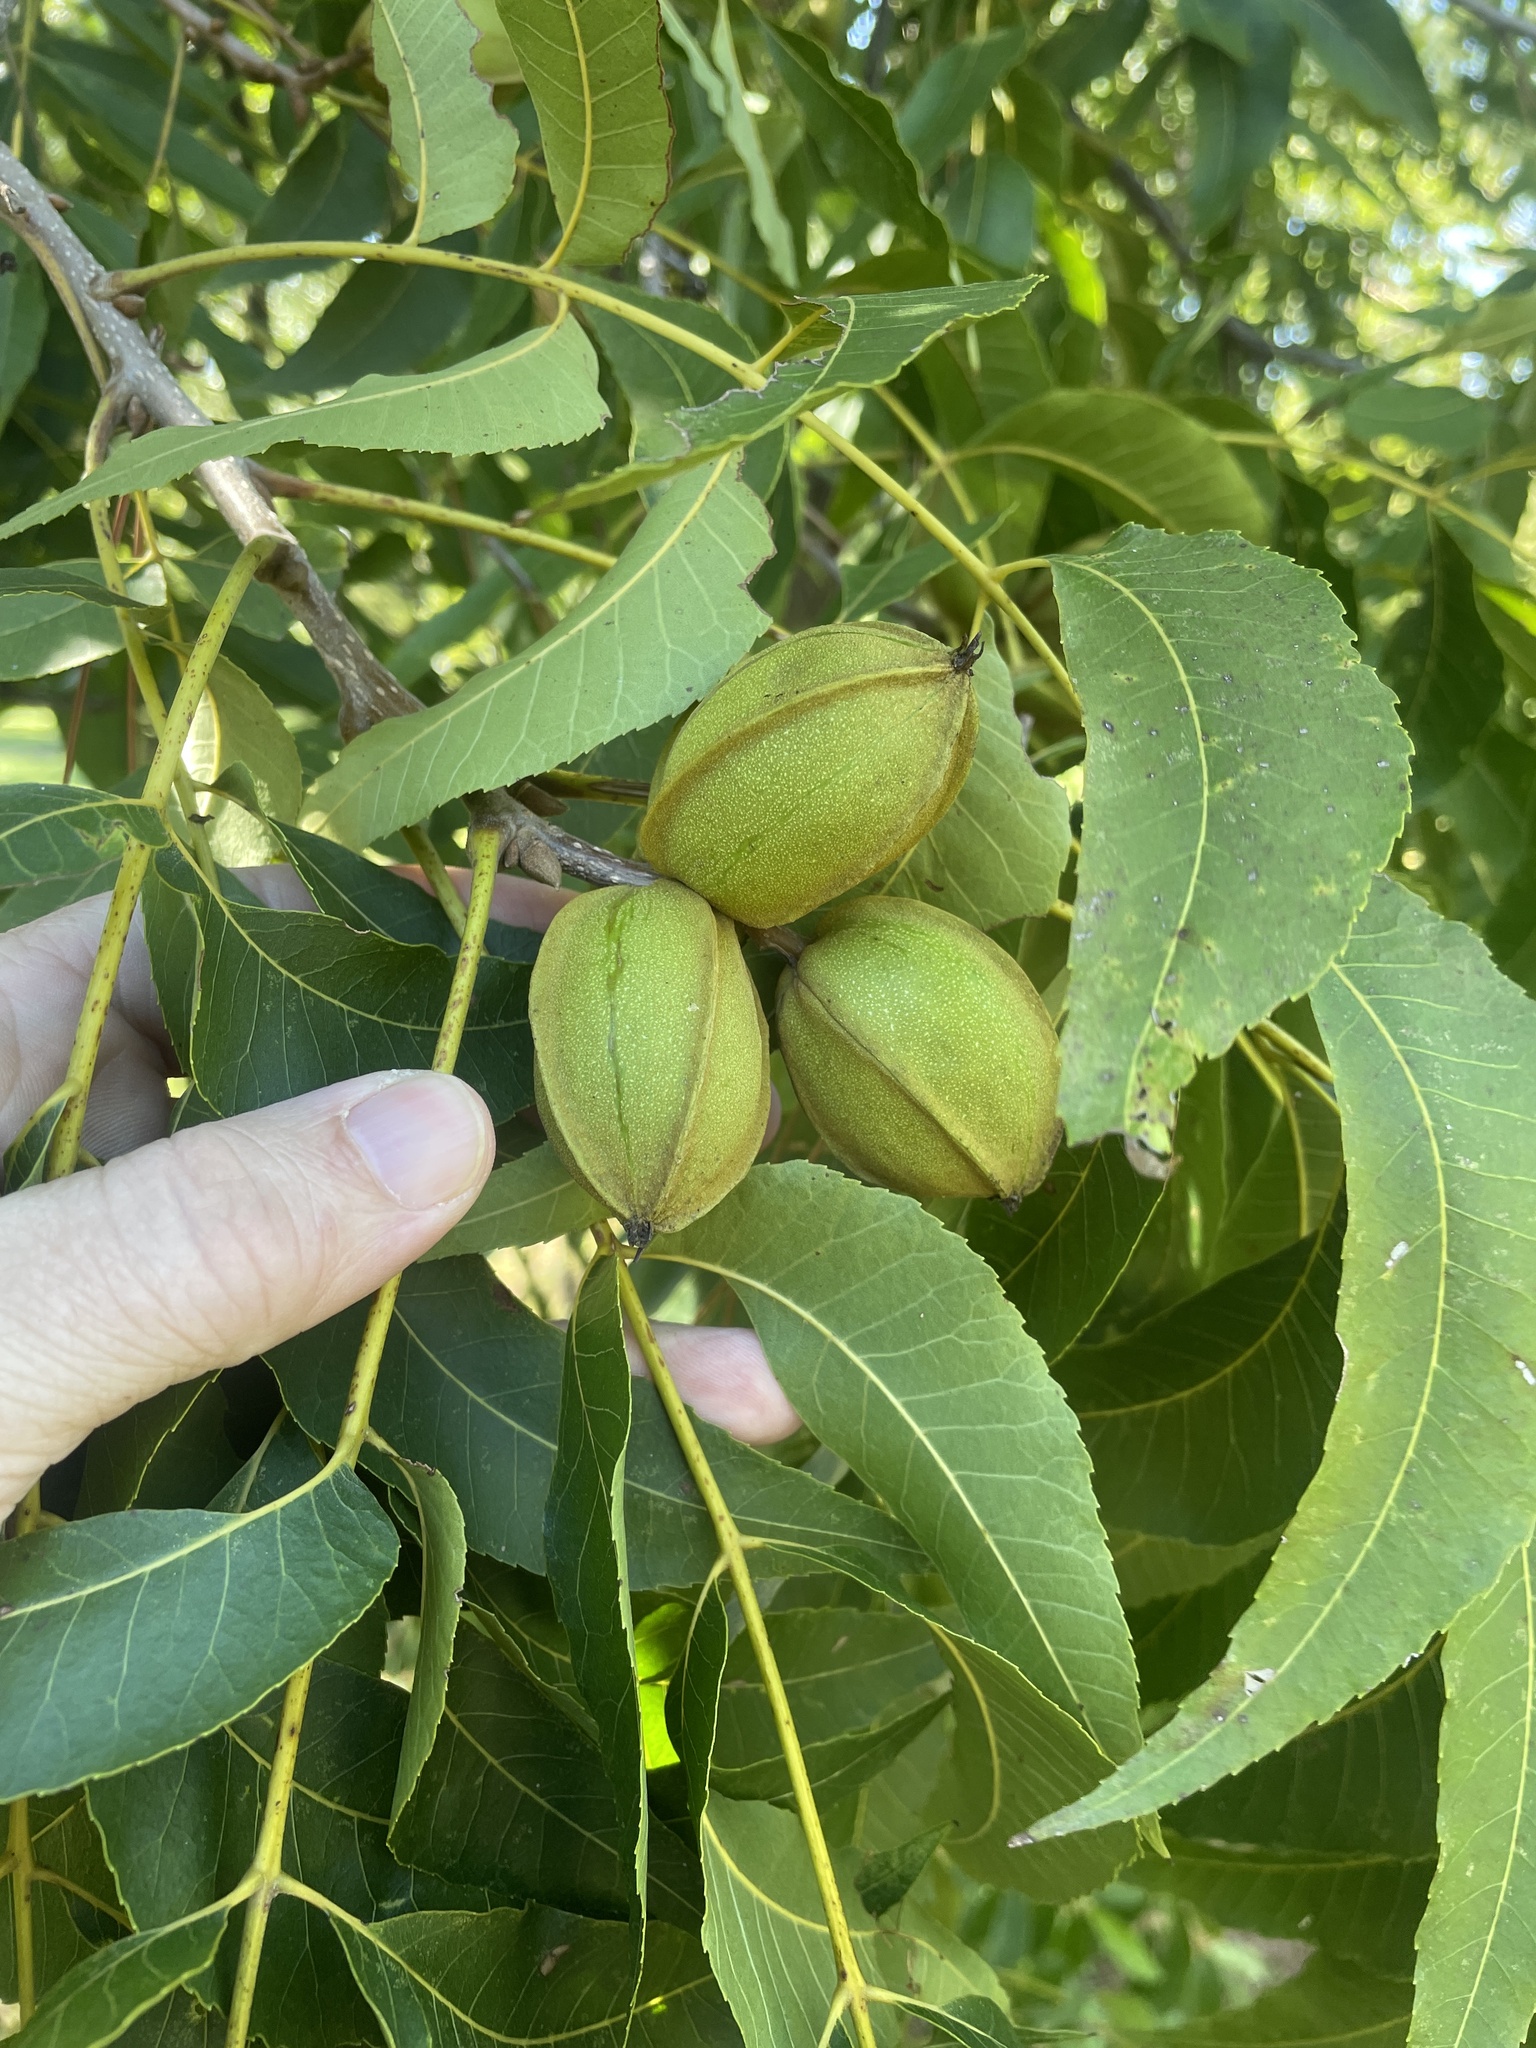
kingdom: Plantae
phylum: Tracheophyta
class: Magnoliopsida
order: Fagales
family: Juglandaceae
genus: Carya
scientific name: Carya illinoinensis
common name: Pecan
